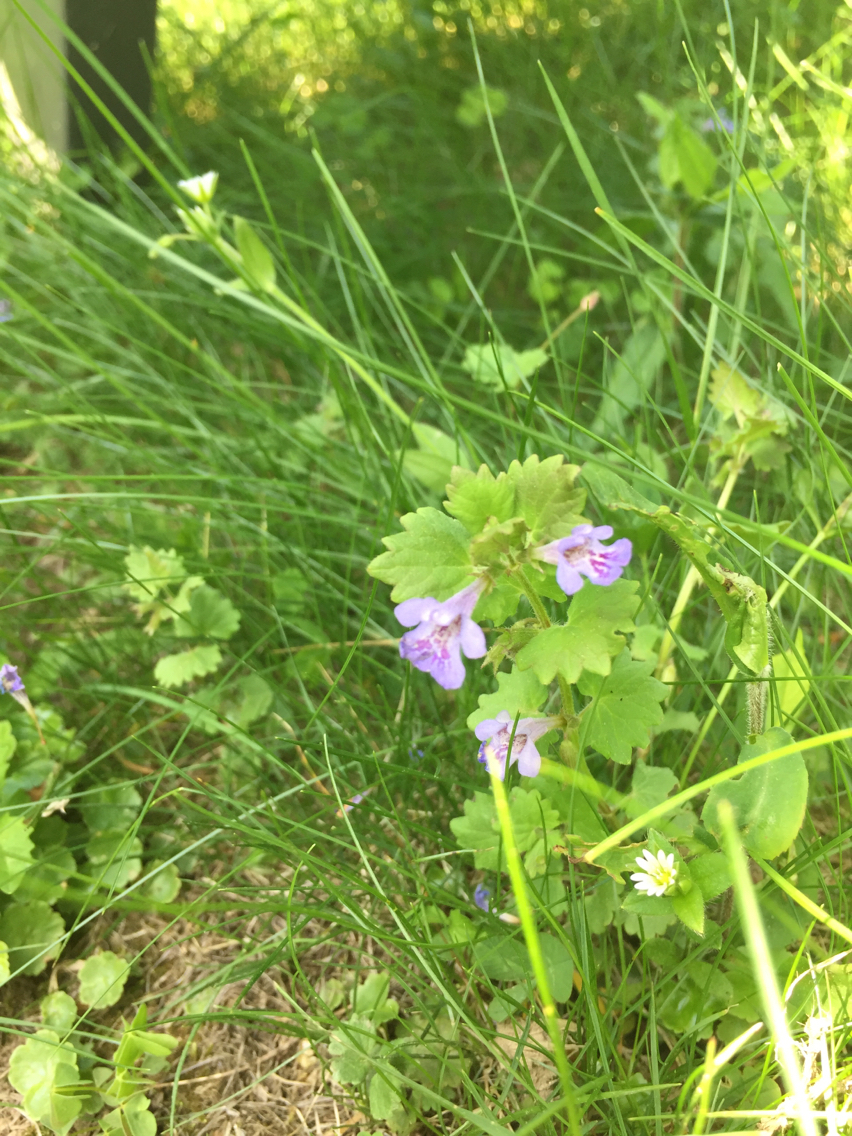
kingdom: Plantae
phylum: Tracheophyta
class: Magnoliopsida
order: Lamiales
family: Lamiaceae
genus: Glechoma
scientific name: Glechoma hederacea
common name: Ground ivy
